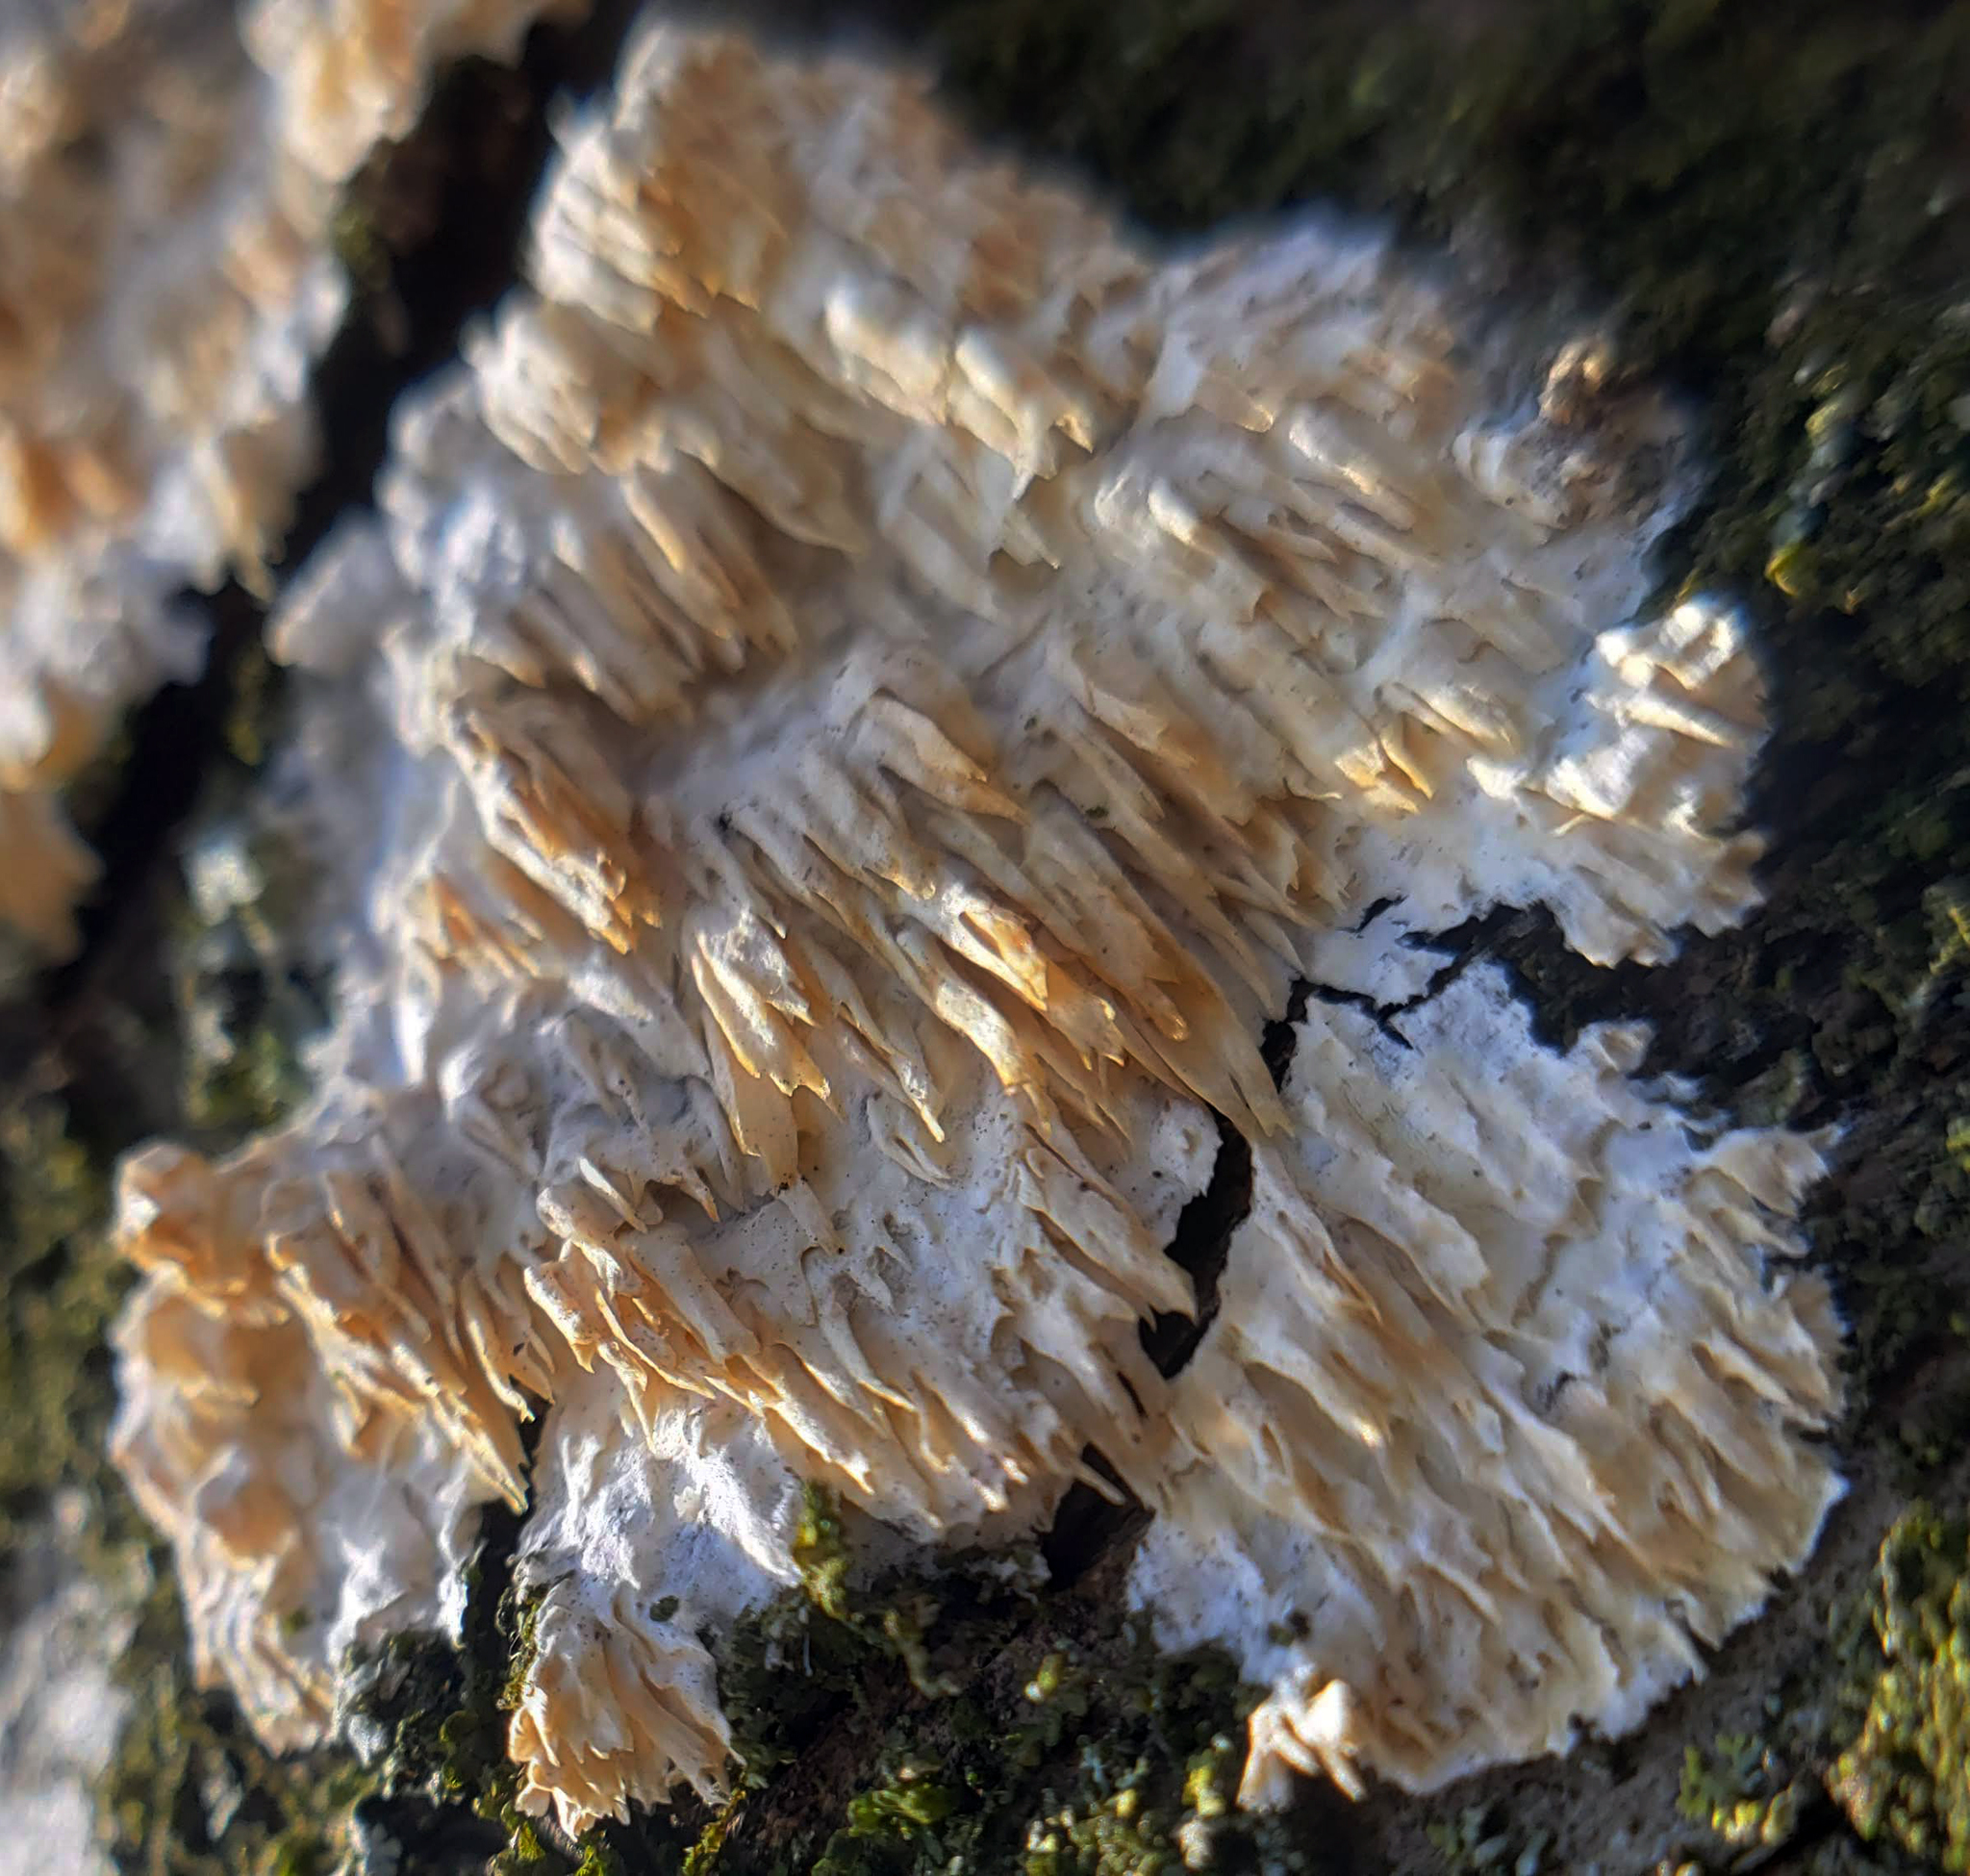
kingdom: Fungi
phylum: Basidiomycota
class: Agaricomycetes
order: Polyporales
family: Irpicaceae
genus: Irpex
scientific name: Irpex lacteus
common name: Milk-white toothed polypore
